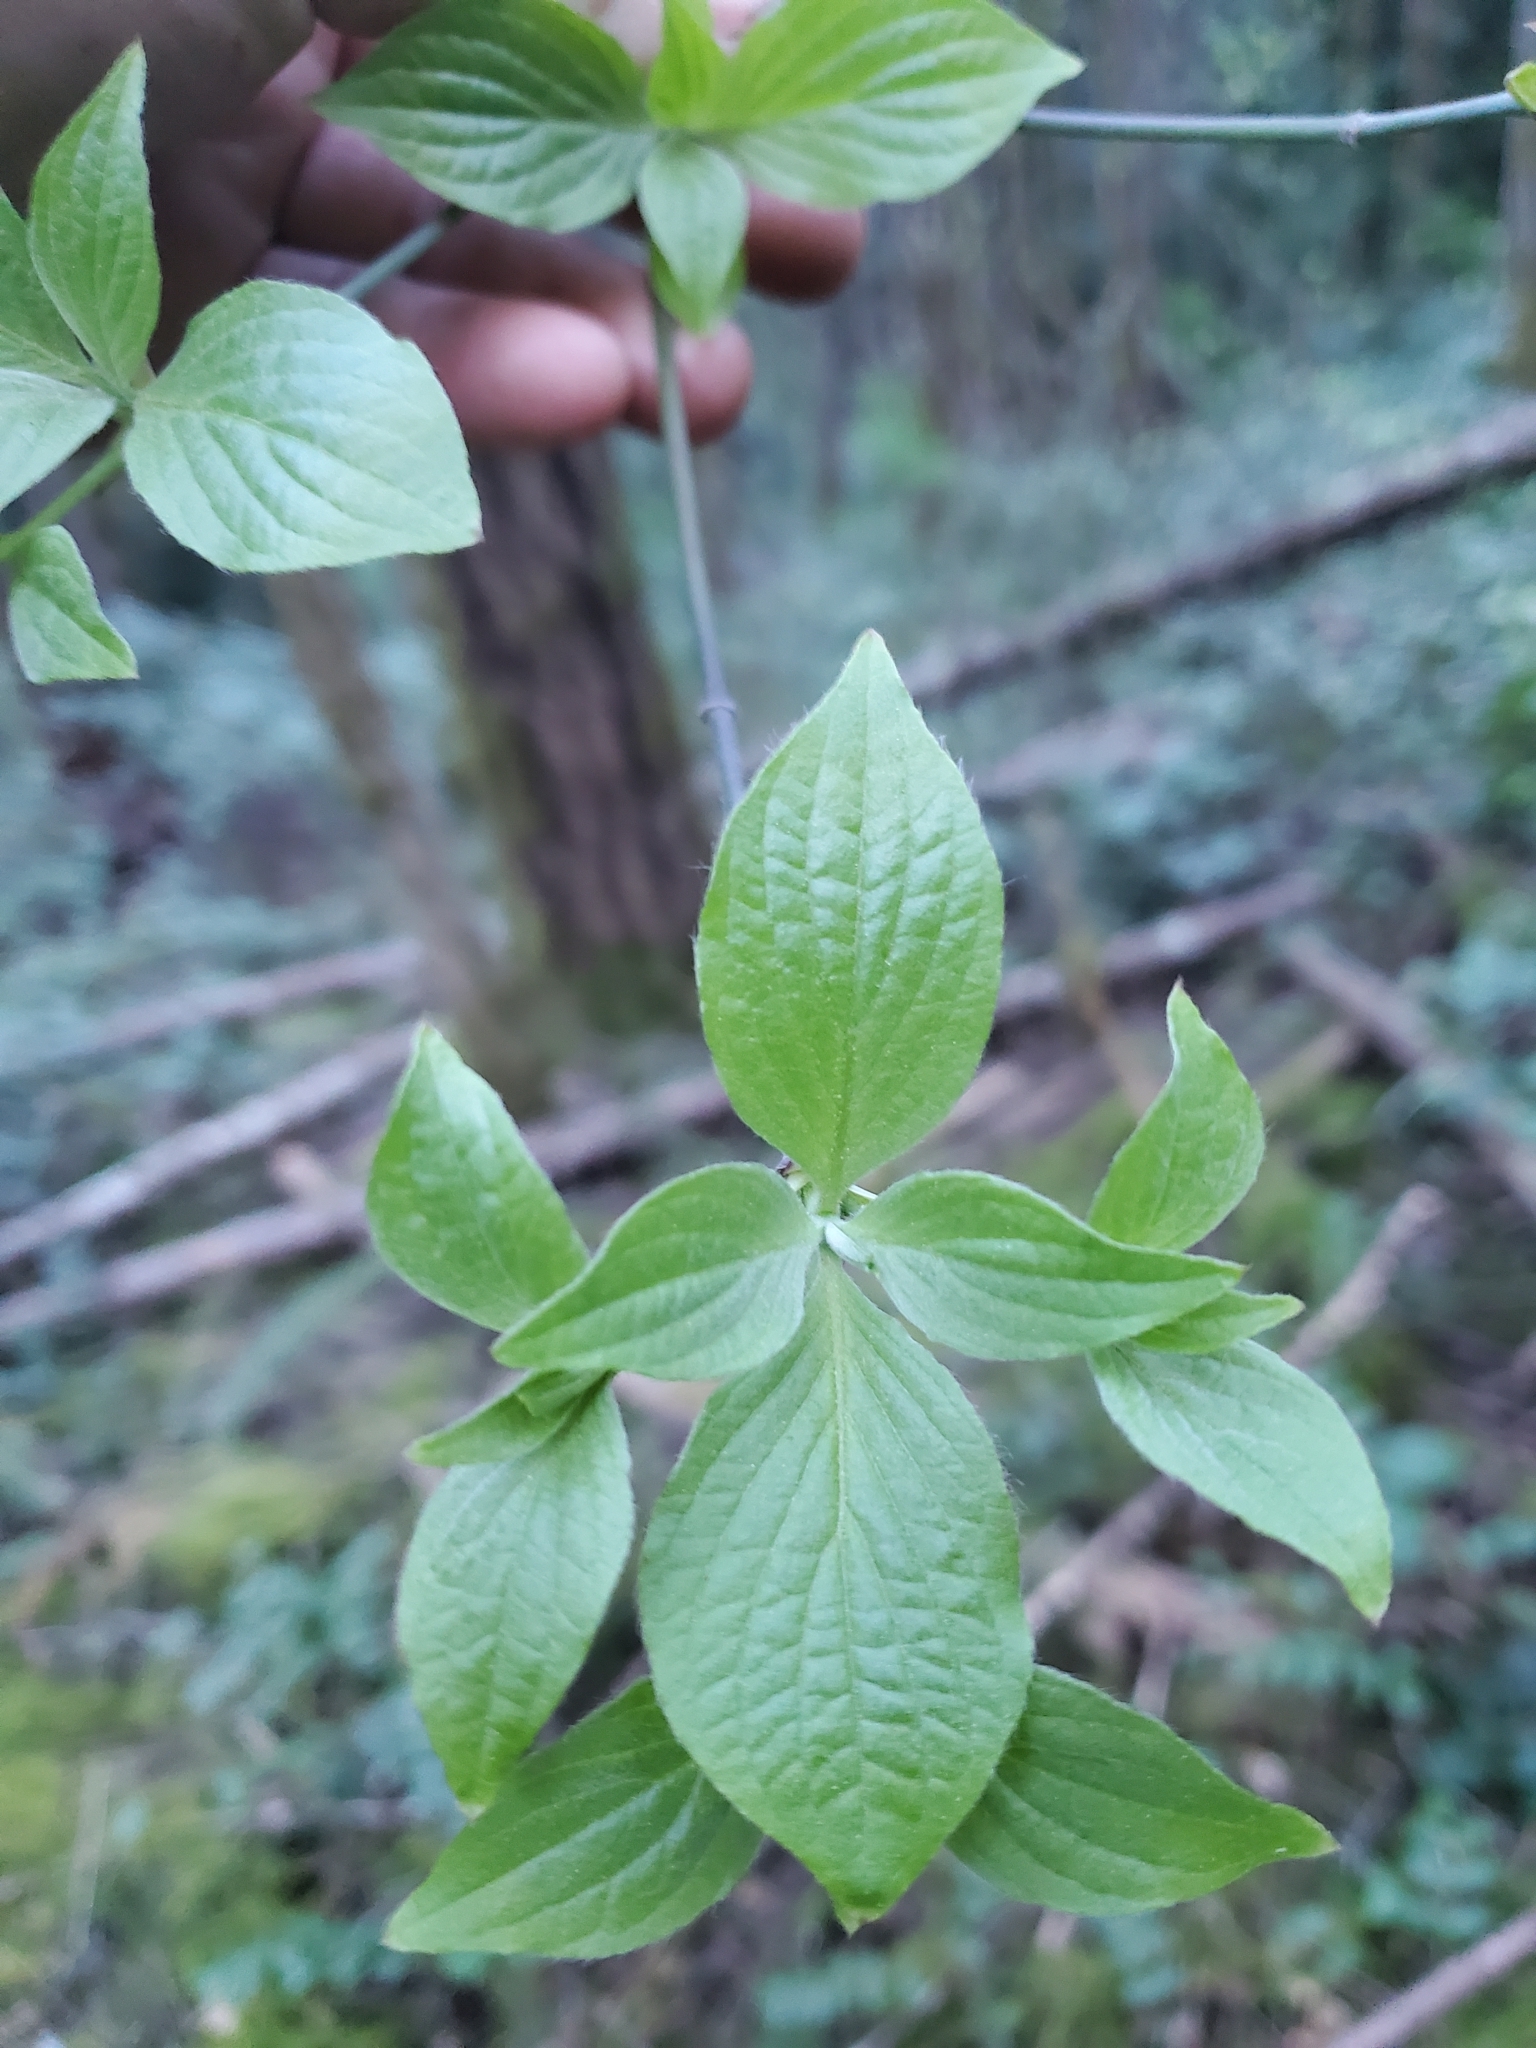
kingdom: Plantae
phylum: Tracheophyta
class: Magnoliopsida
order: Cornales
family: Cornaceae
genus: Cornus
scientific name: Cornus nuttallii
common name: Pacific dogwood
